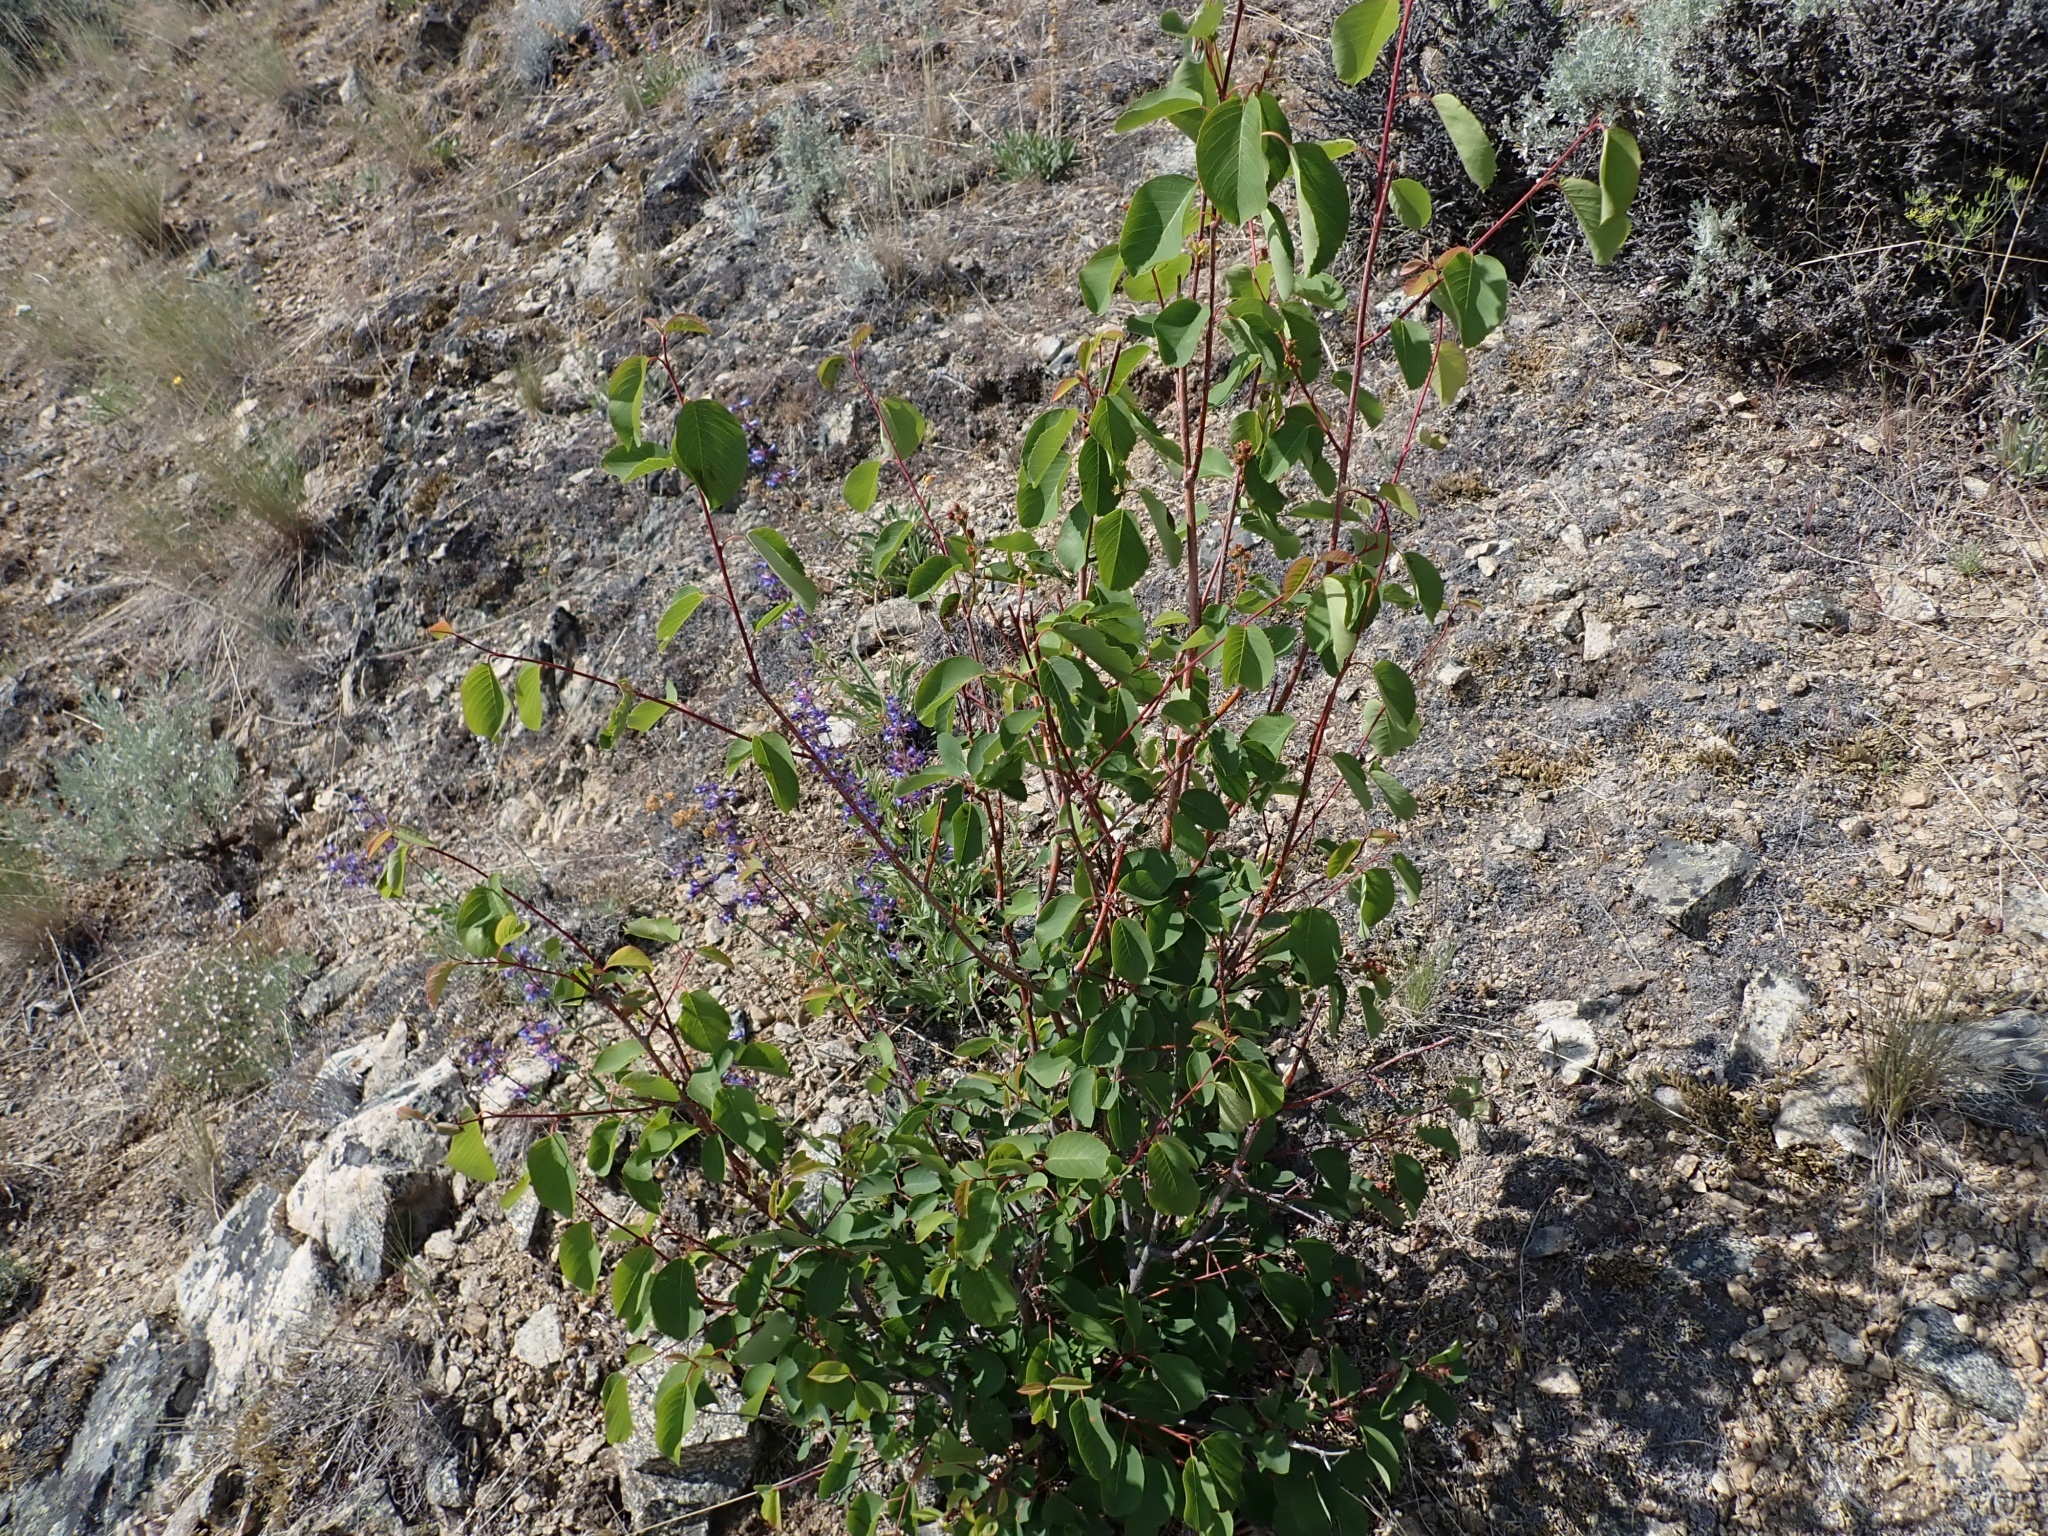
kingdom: Plantae
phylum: Tracheophyta
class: Magnoliopsida
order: Rosales
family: Rosaceae
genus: Amelanchier
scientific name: Amelanchier alnifolia
